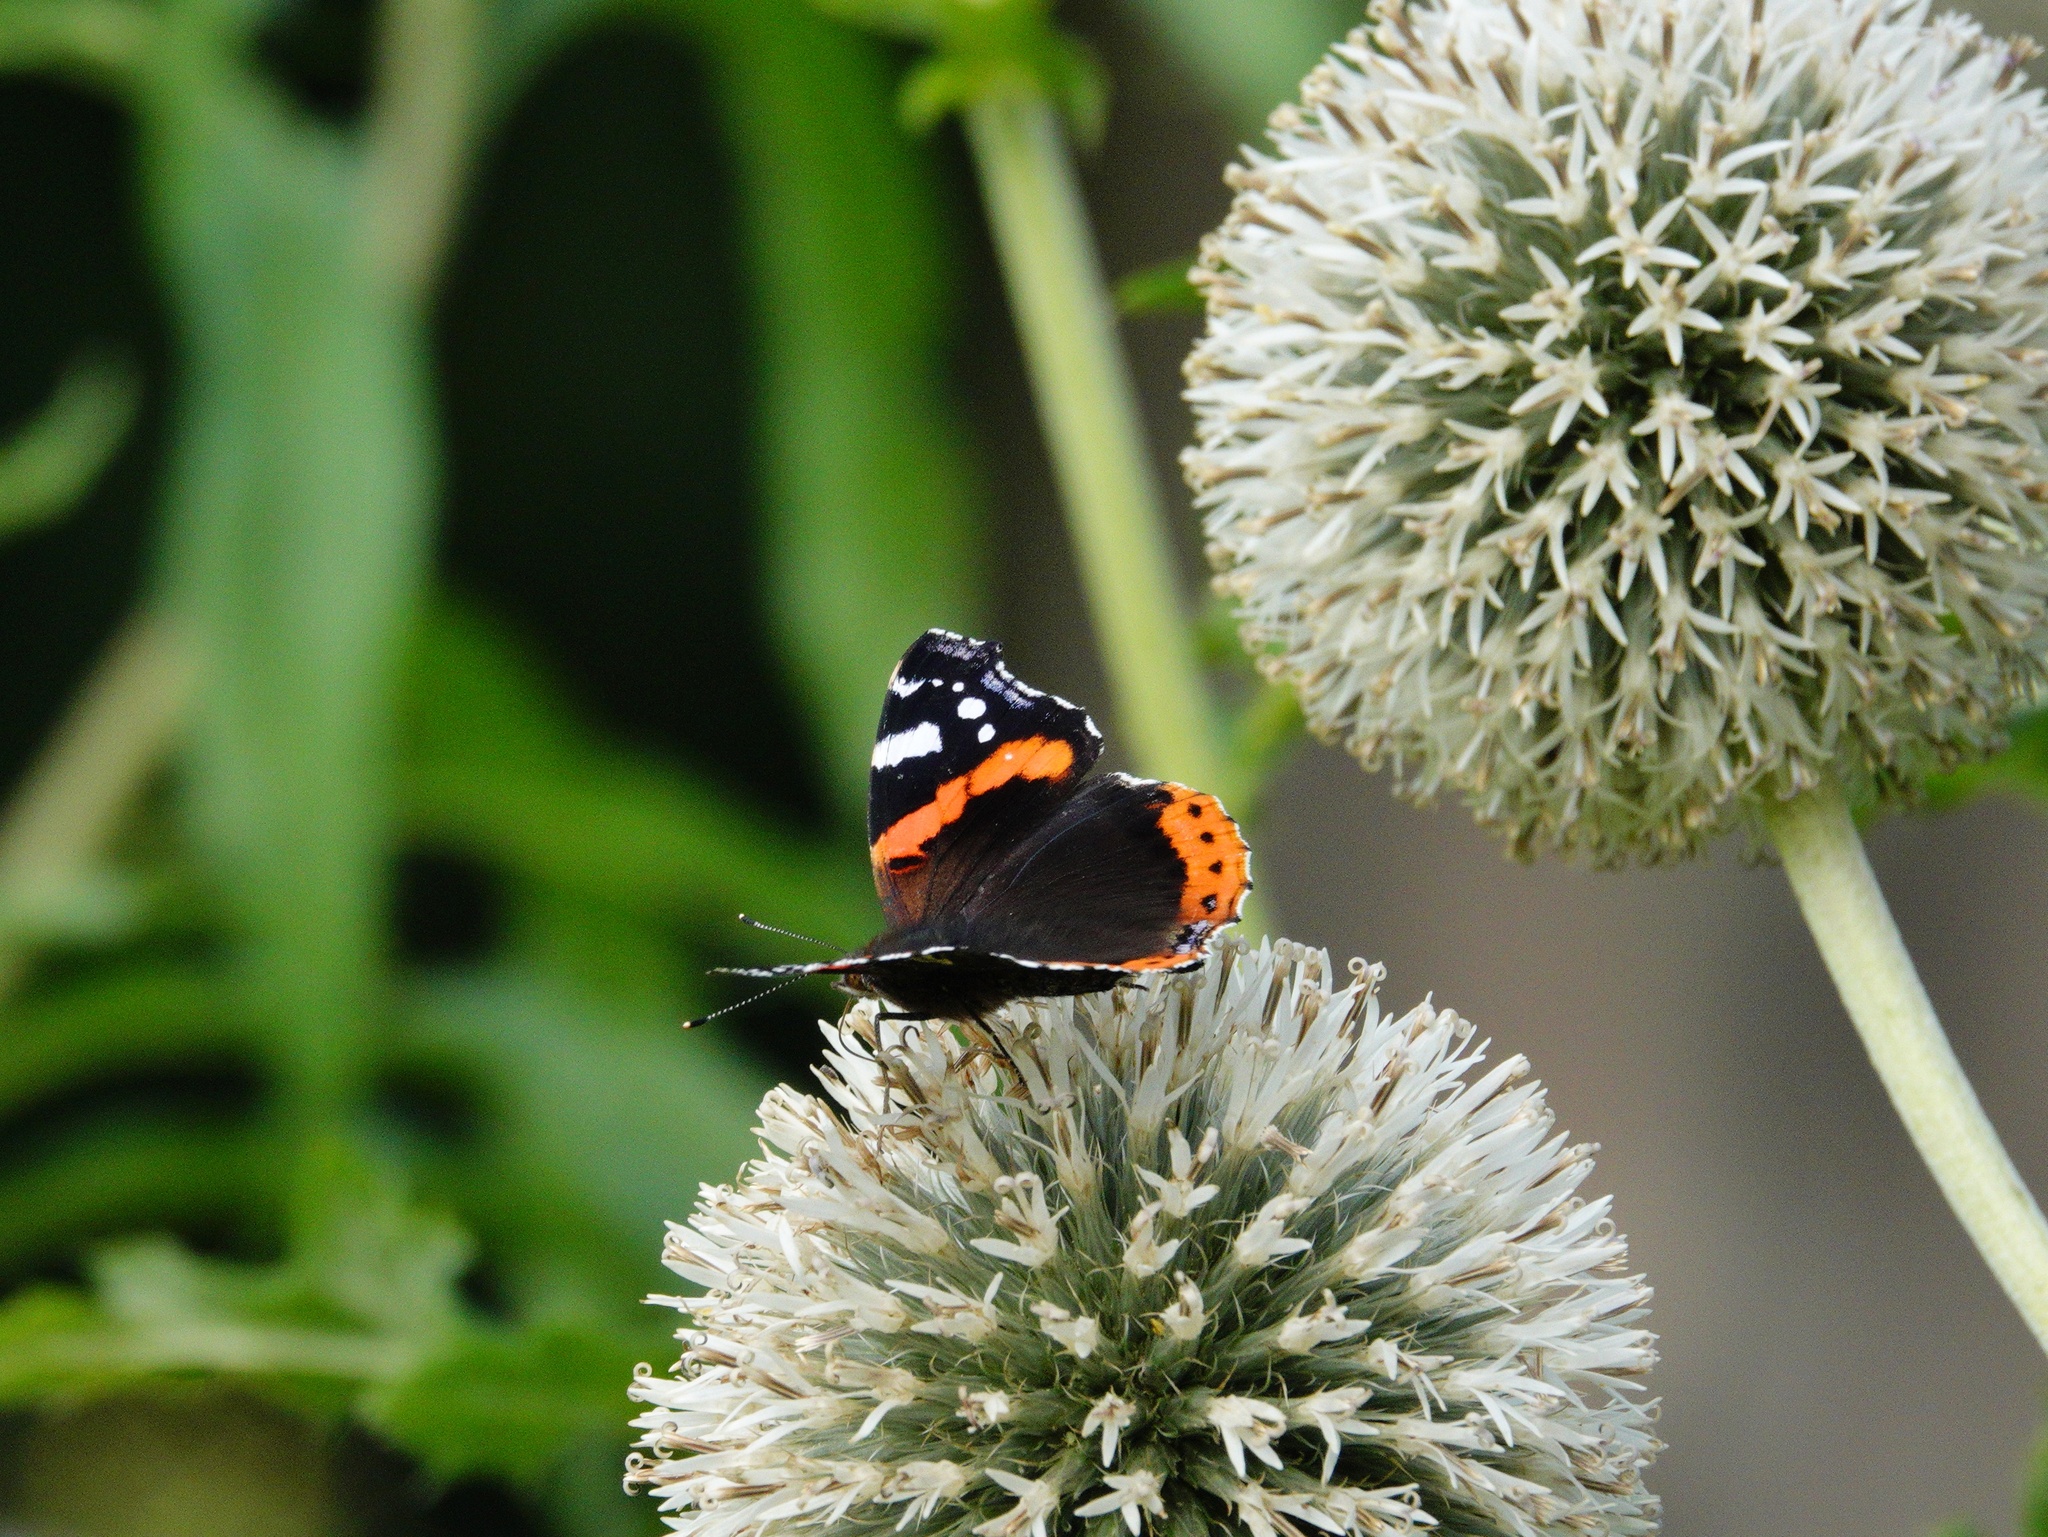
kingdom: Animalia
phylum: Arthropoda
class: Insecta
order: Lepidoptera
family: Nymphalidae
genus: Vanessa
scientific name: Vanessa atalanta
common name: Red admiral
